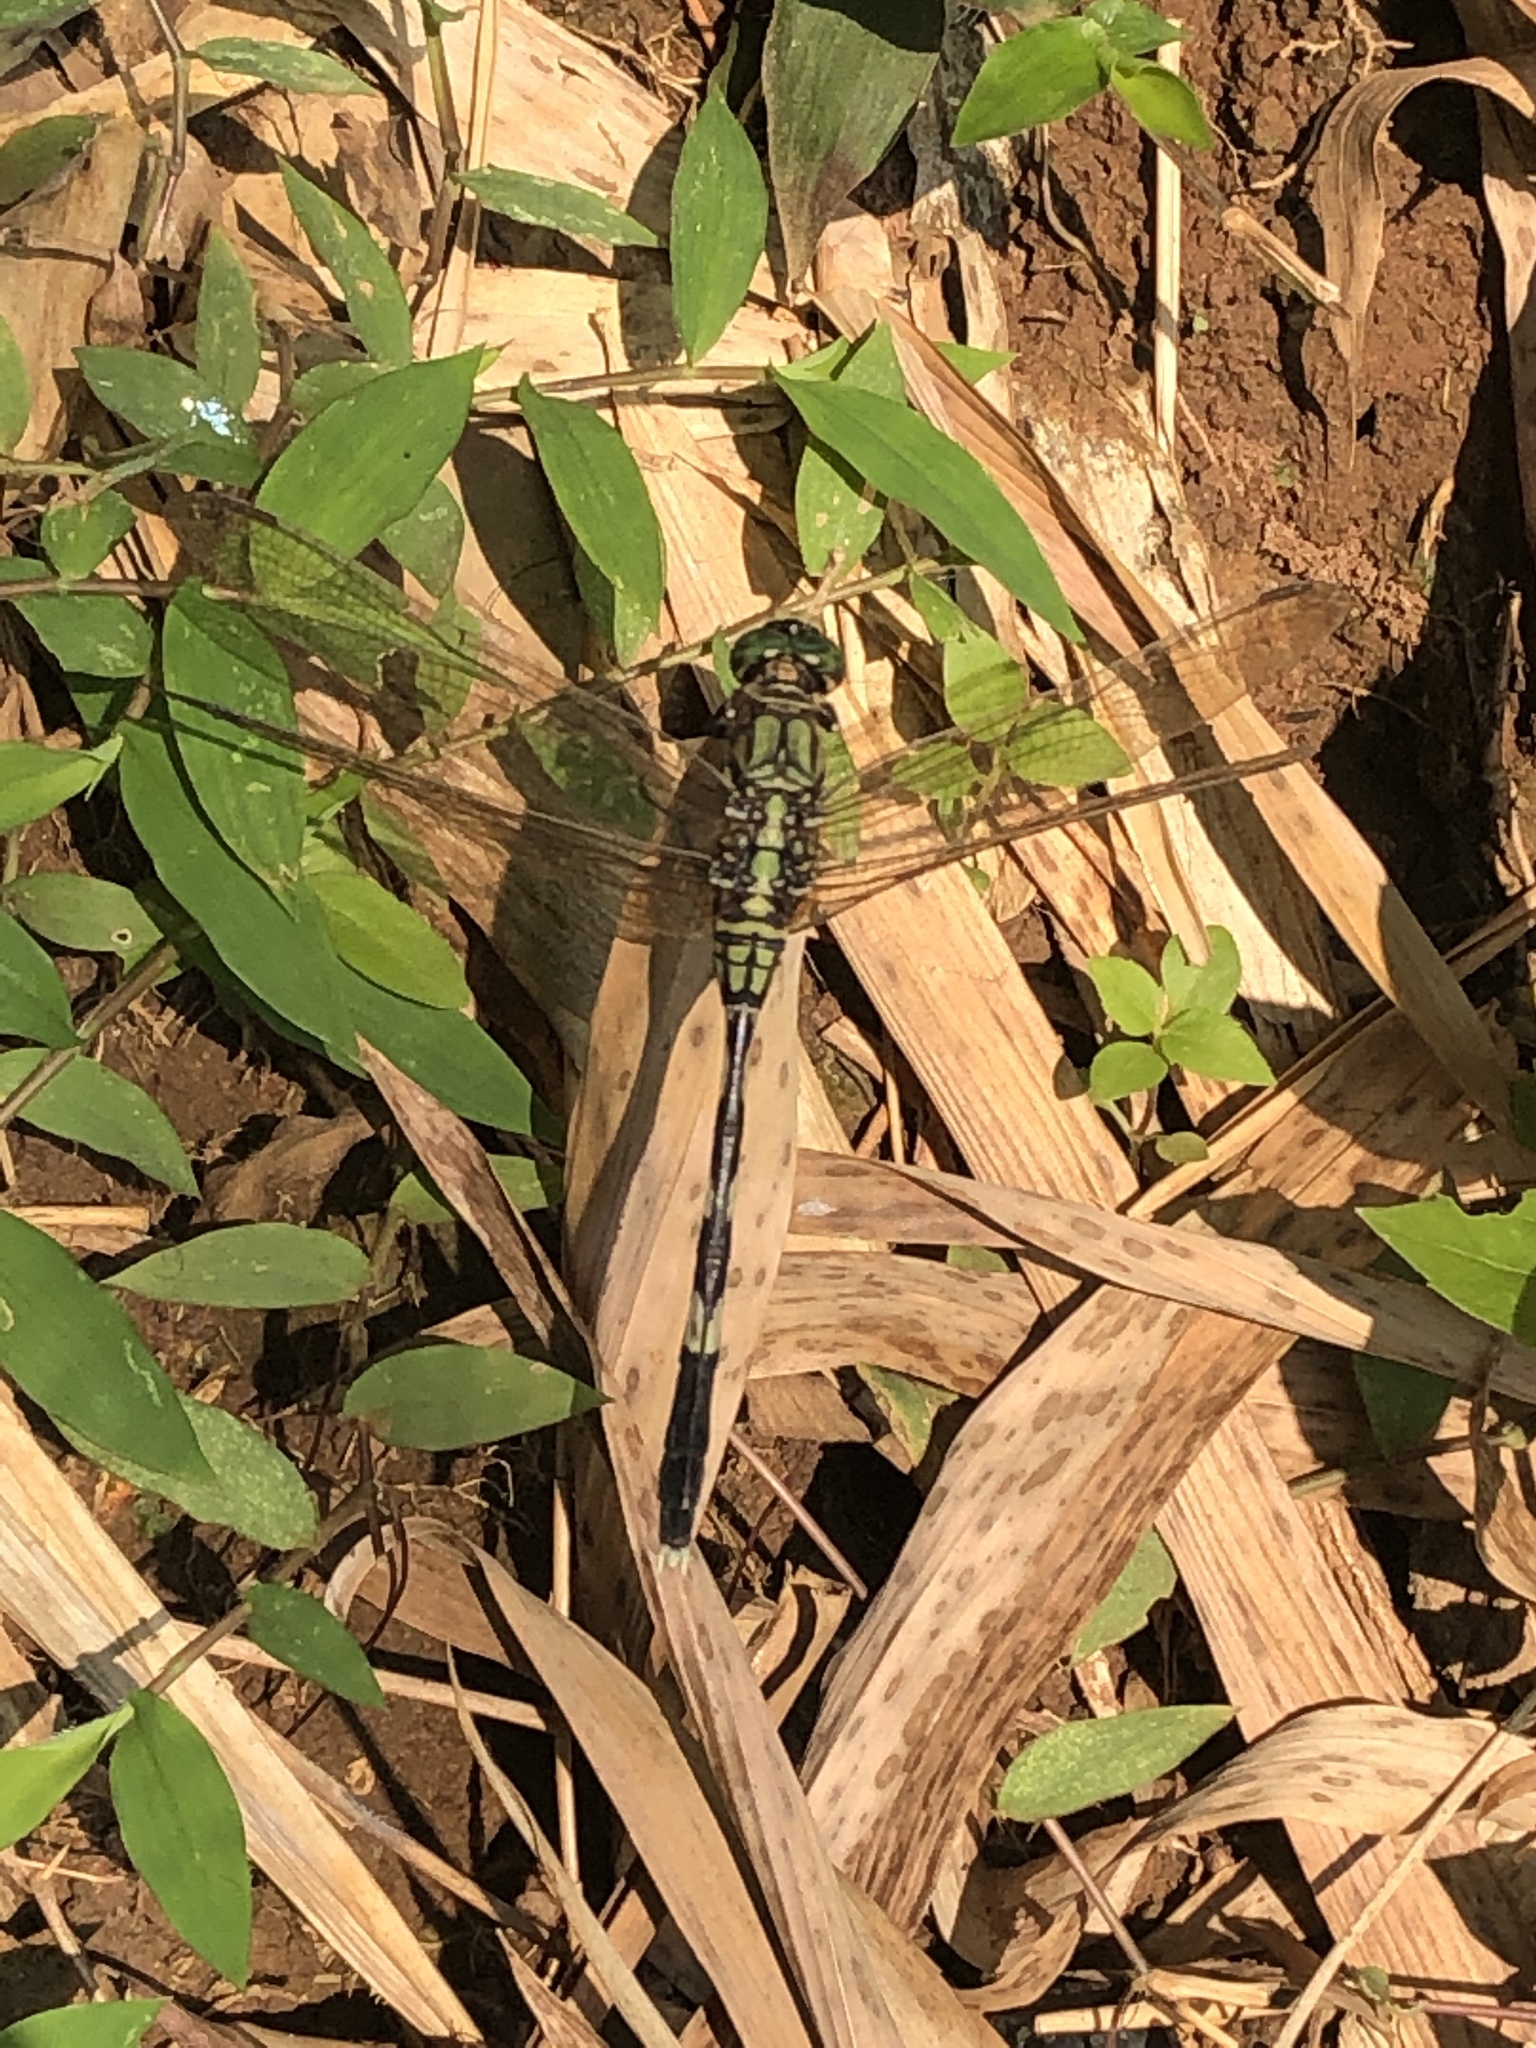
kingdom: Animalia
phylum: Arthropoda
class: Insecta
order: Odonata
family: Libellulidae
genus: Orthetrum
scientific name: Orthetrum sabina
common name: Slender skimmer
